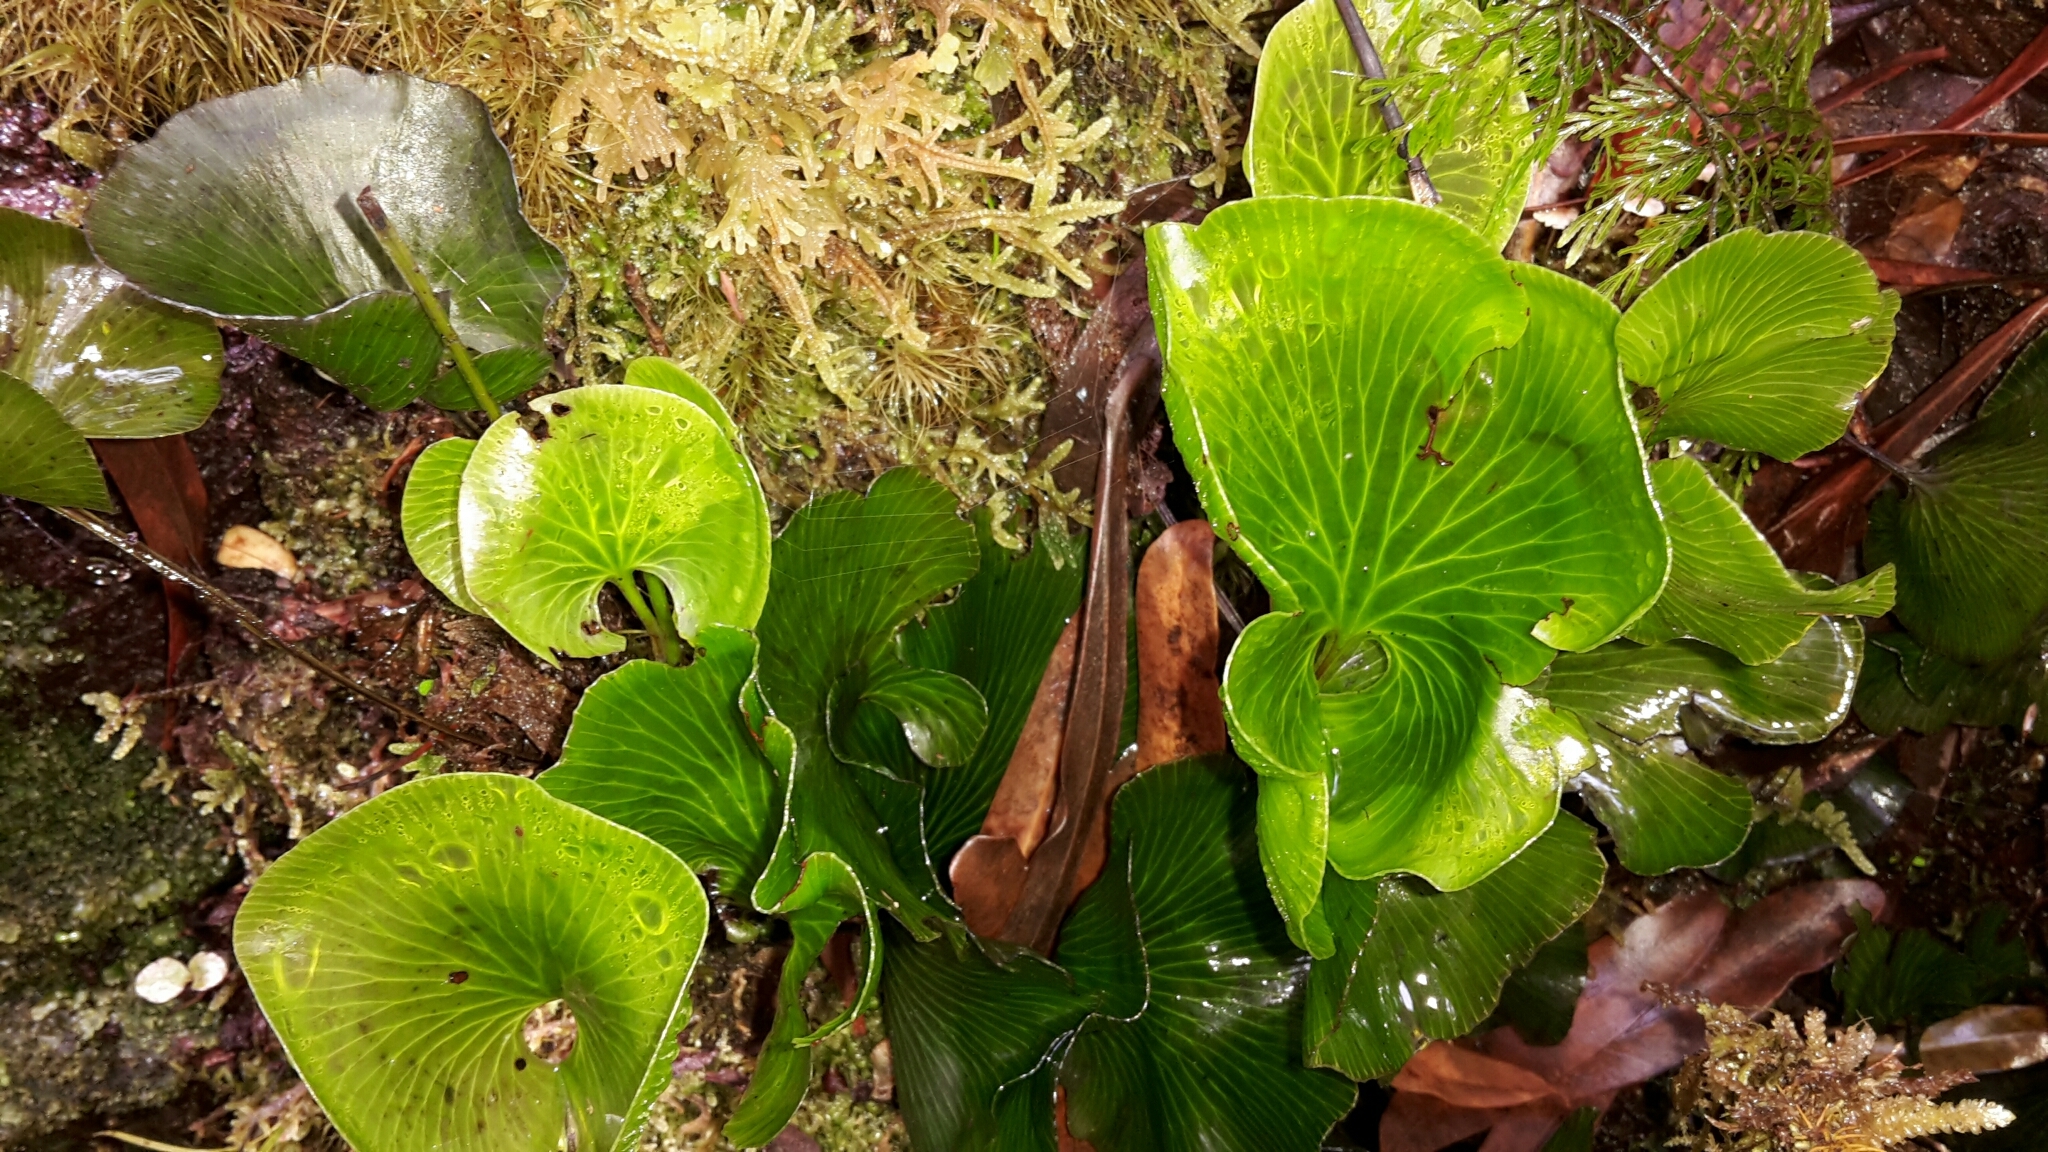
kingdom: Plantae
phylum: Tracheophyta
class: Polypodiopsida
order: Hymenophyllales
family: Hymenophyllaceae
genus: Hymenophyllum
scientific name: Hymenophyllum nephrophyllum
